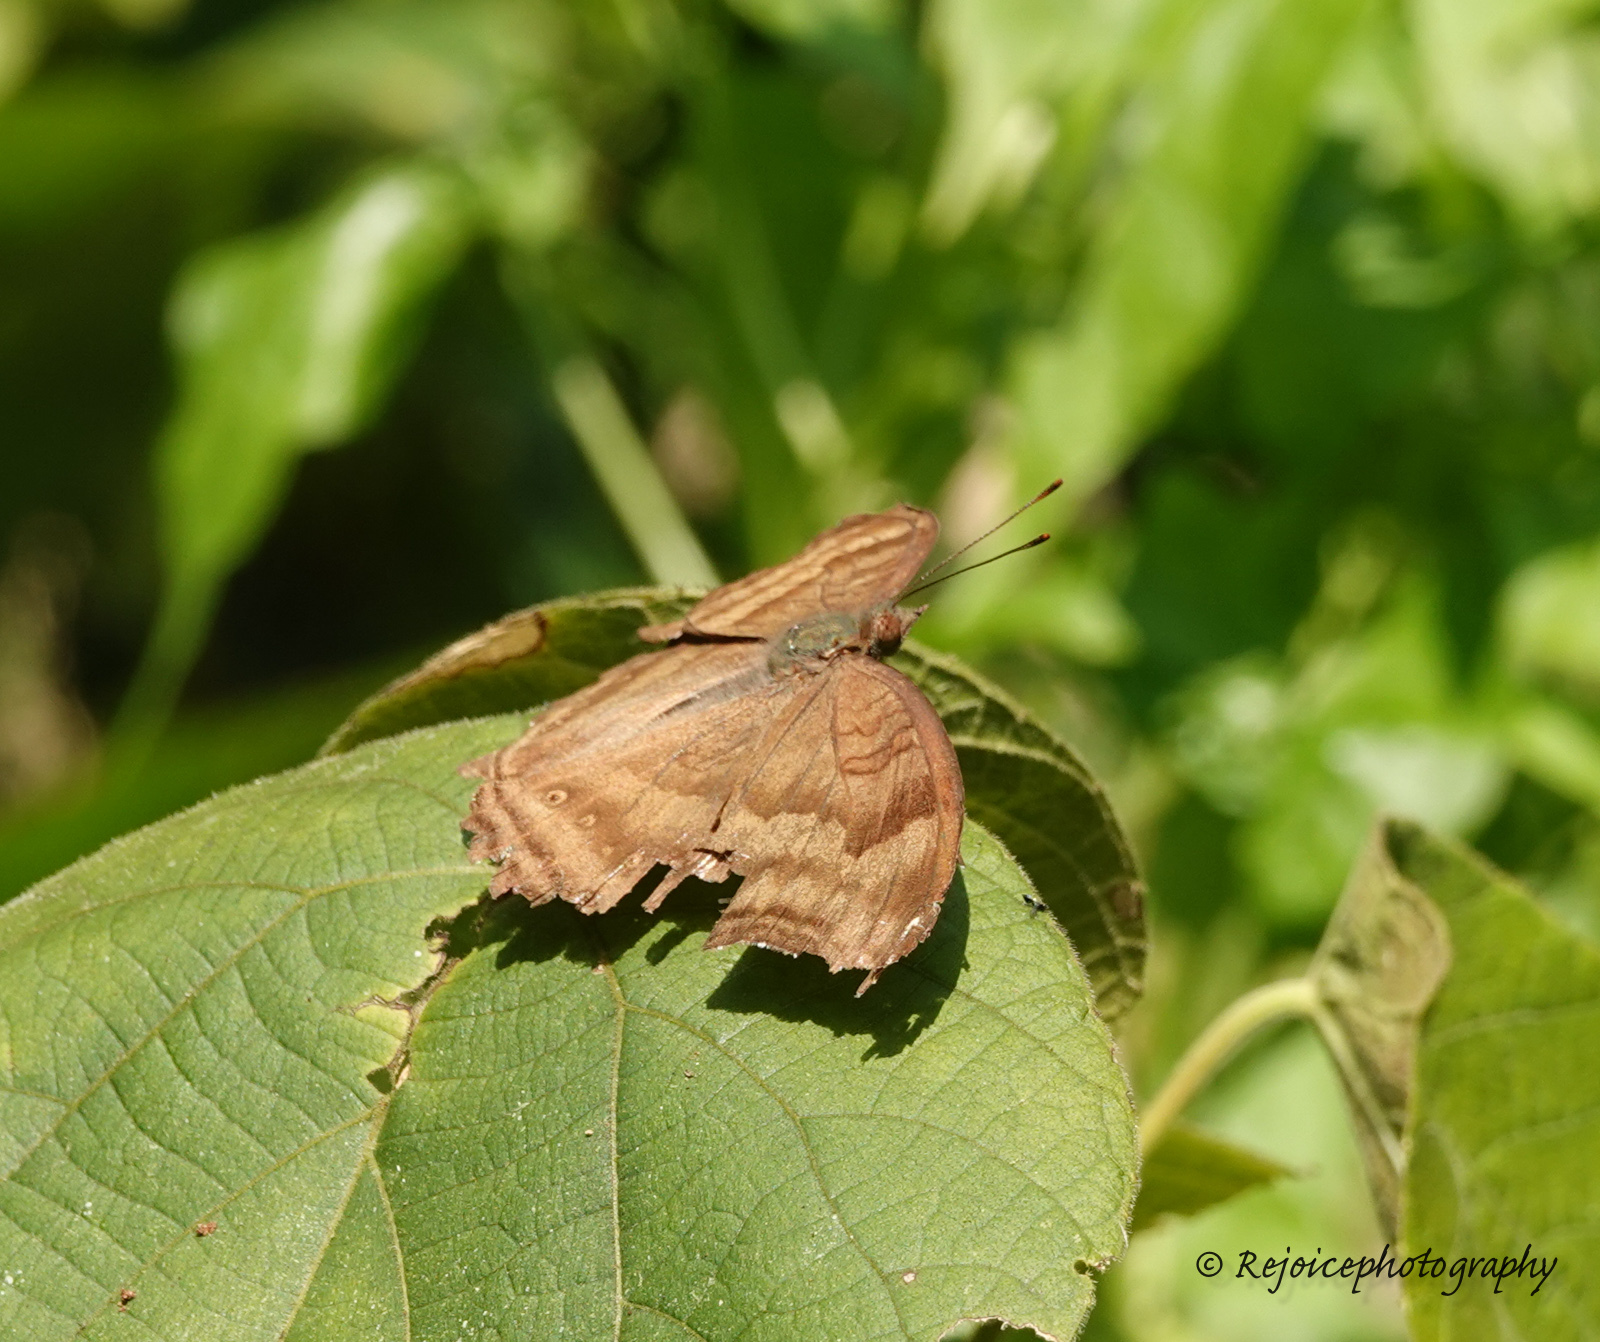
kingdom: Animalia
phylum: Arthropoda
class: Insecta
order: Lepidoptera
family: Nymphalidae
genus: Junonia
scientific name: Junonia iphita
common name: Chocolate pansy
